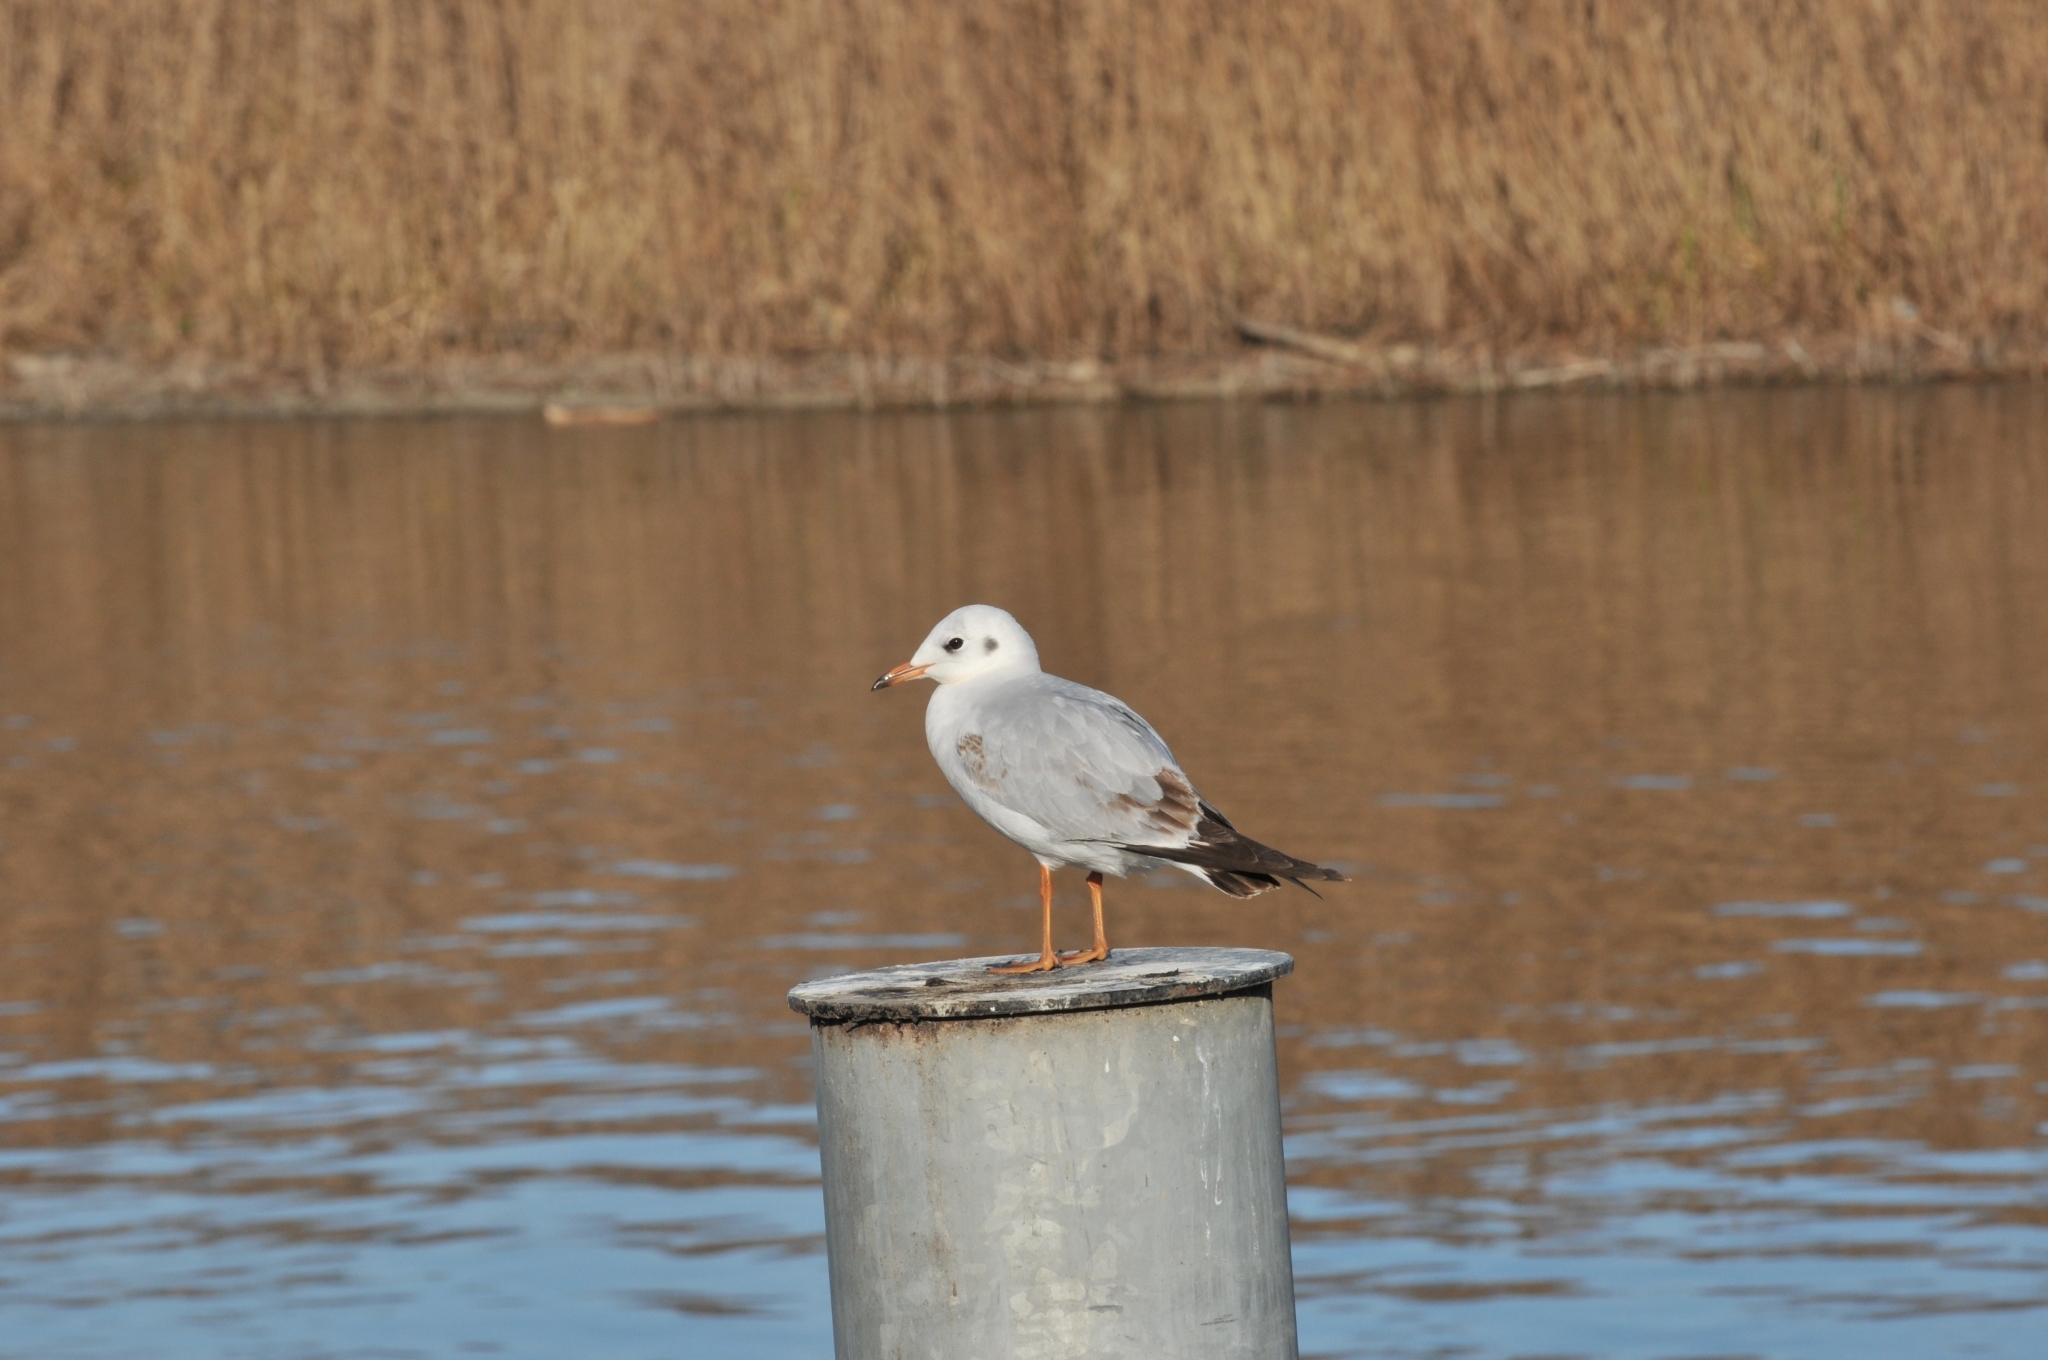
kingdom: Animalia
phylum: Chordata
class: Aves
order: Charadriiformes
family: Laridae
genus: Chroicocephalus
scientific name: Chroicocephalus ridibundus
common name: Black-headed gull
